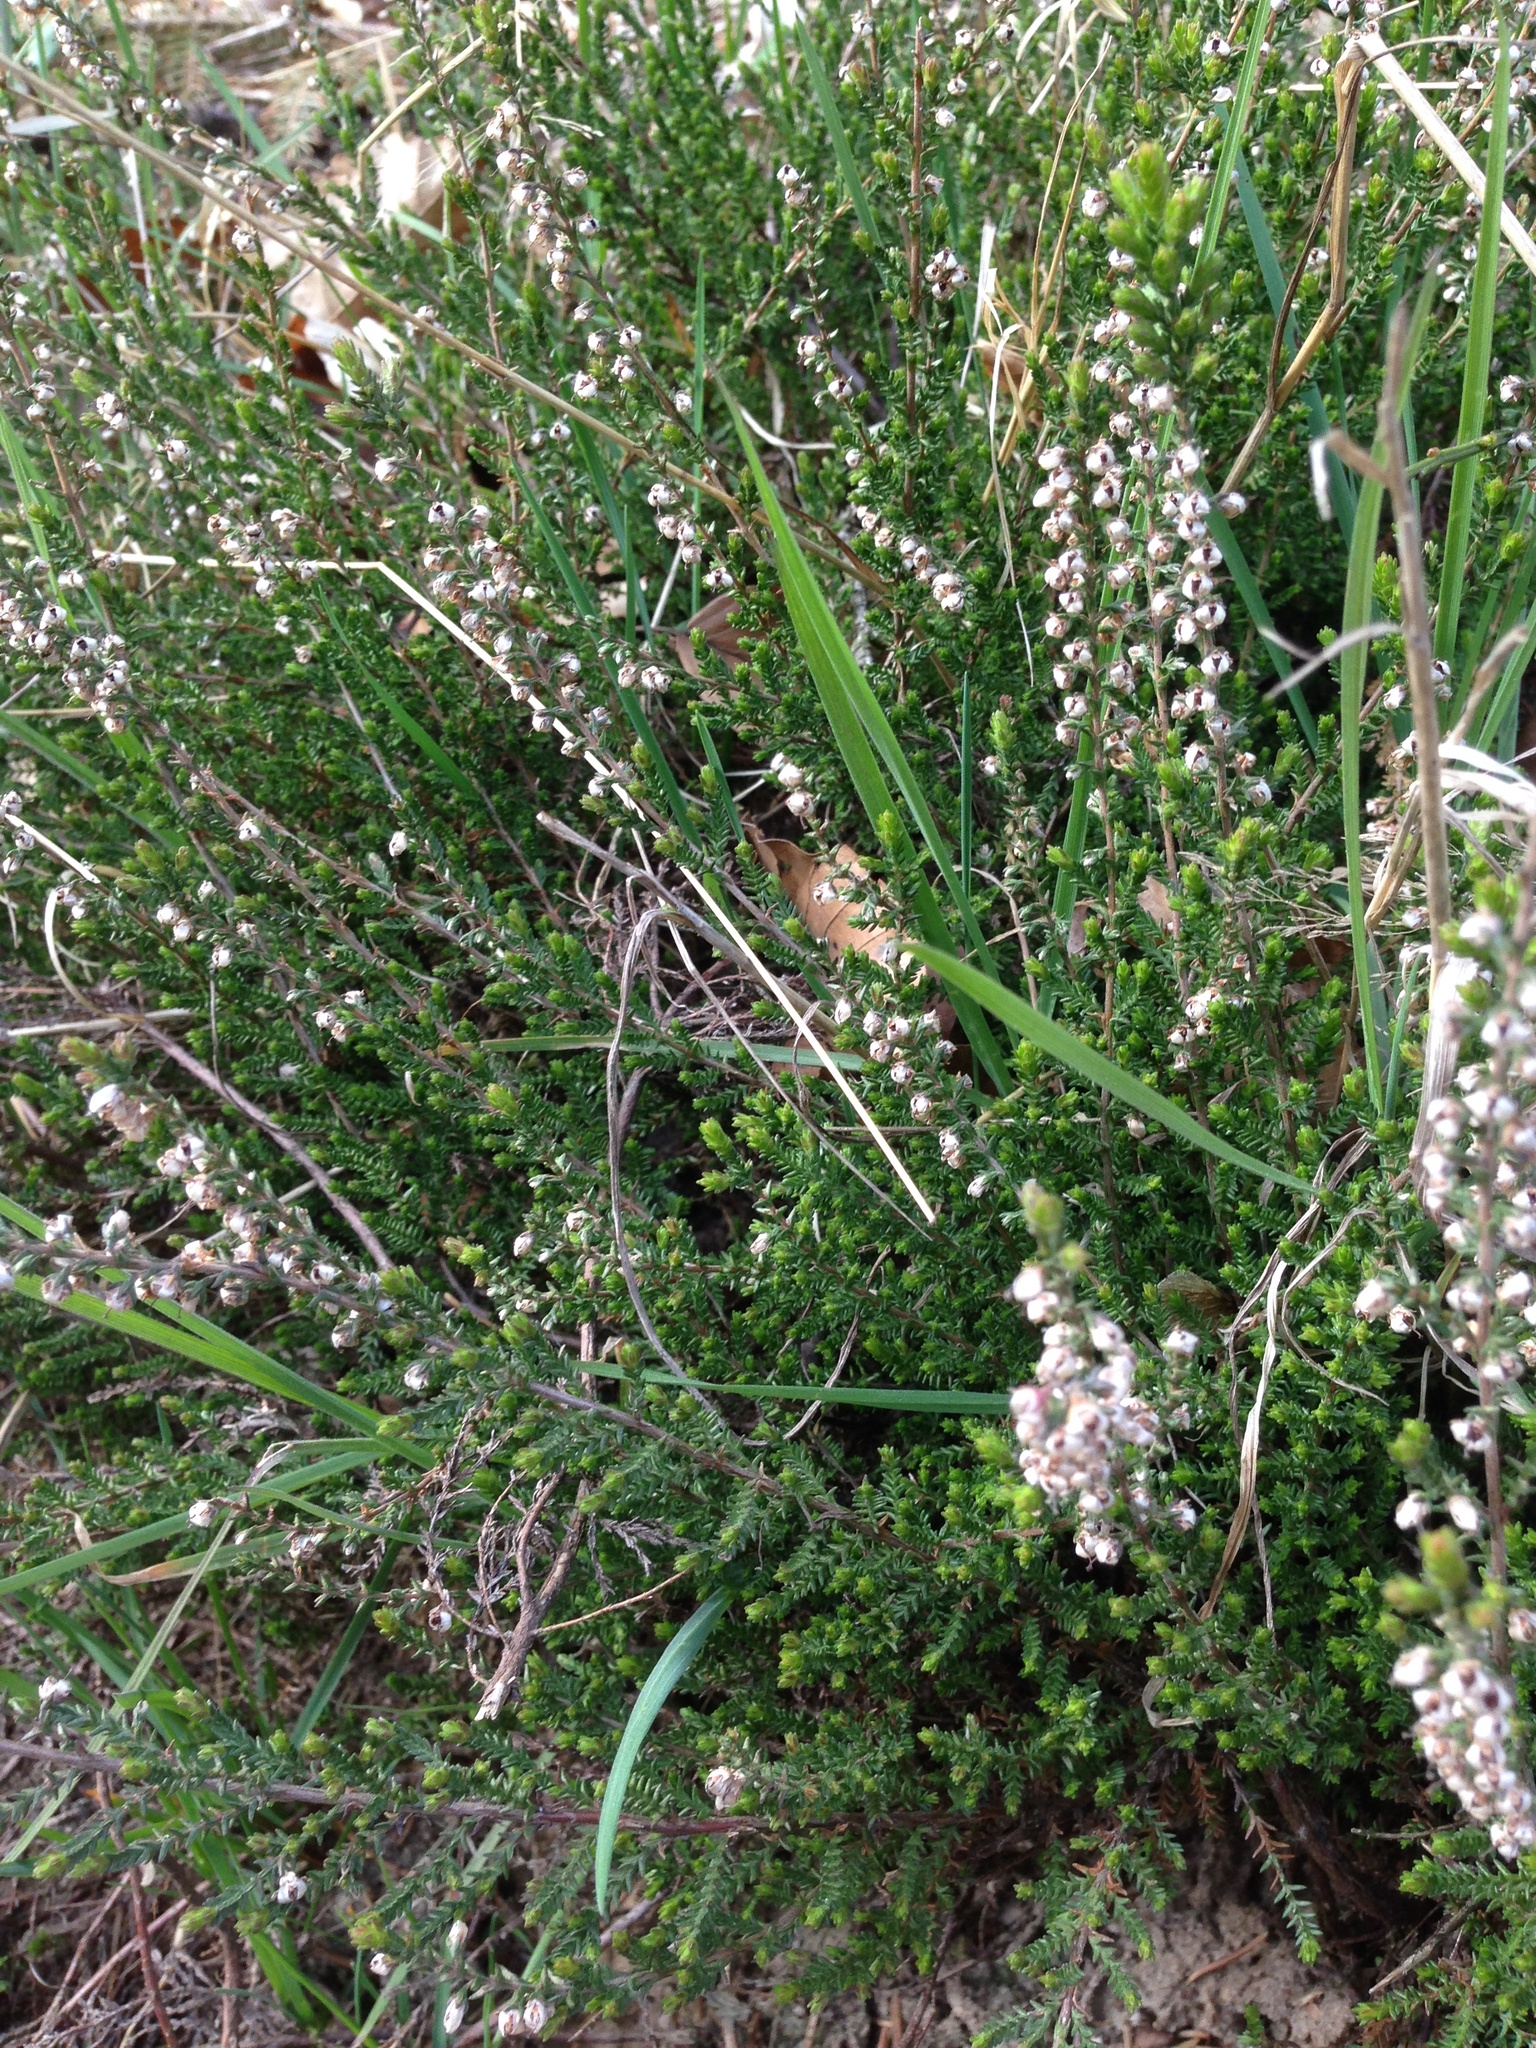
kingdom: Plantae
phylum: Tracheophyta
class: Magnoliopsida
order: Ericales
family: Ericaceae
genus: Calluna
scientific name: Calluna vulgaris
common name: Heather
